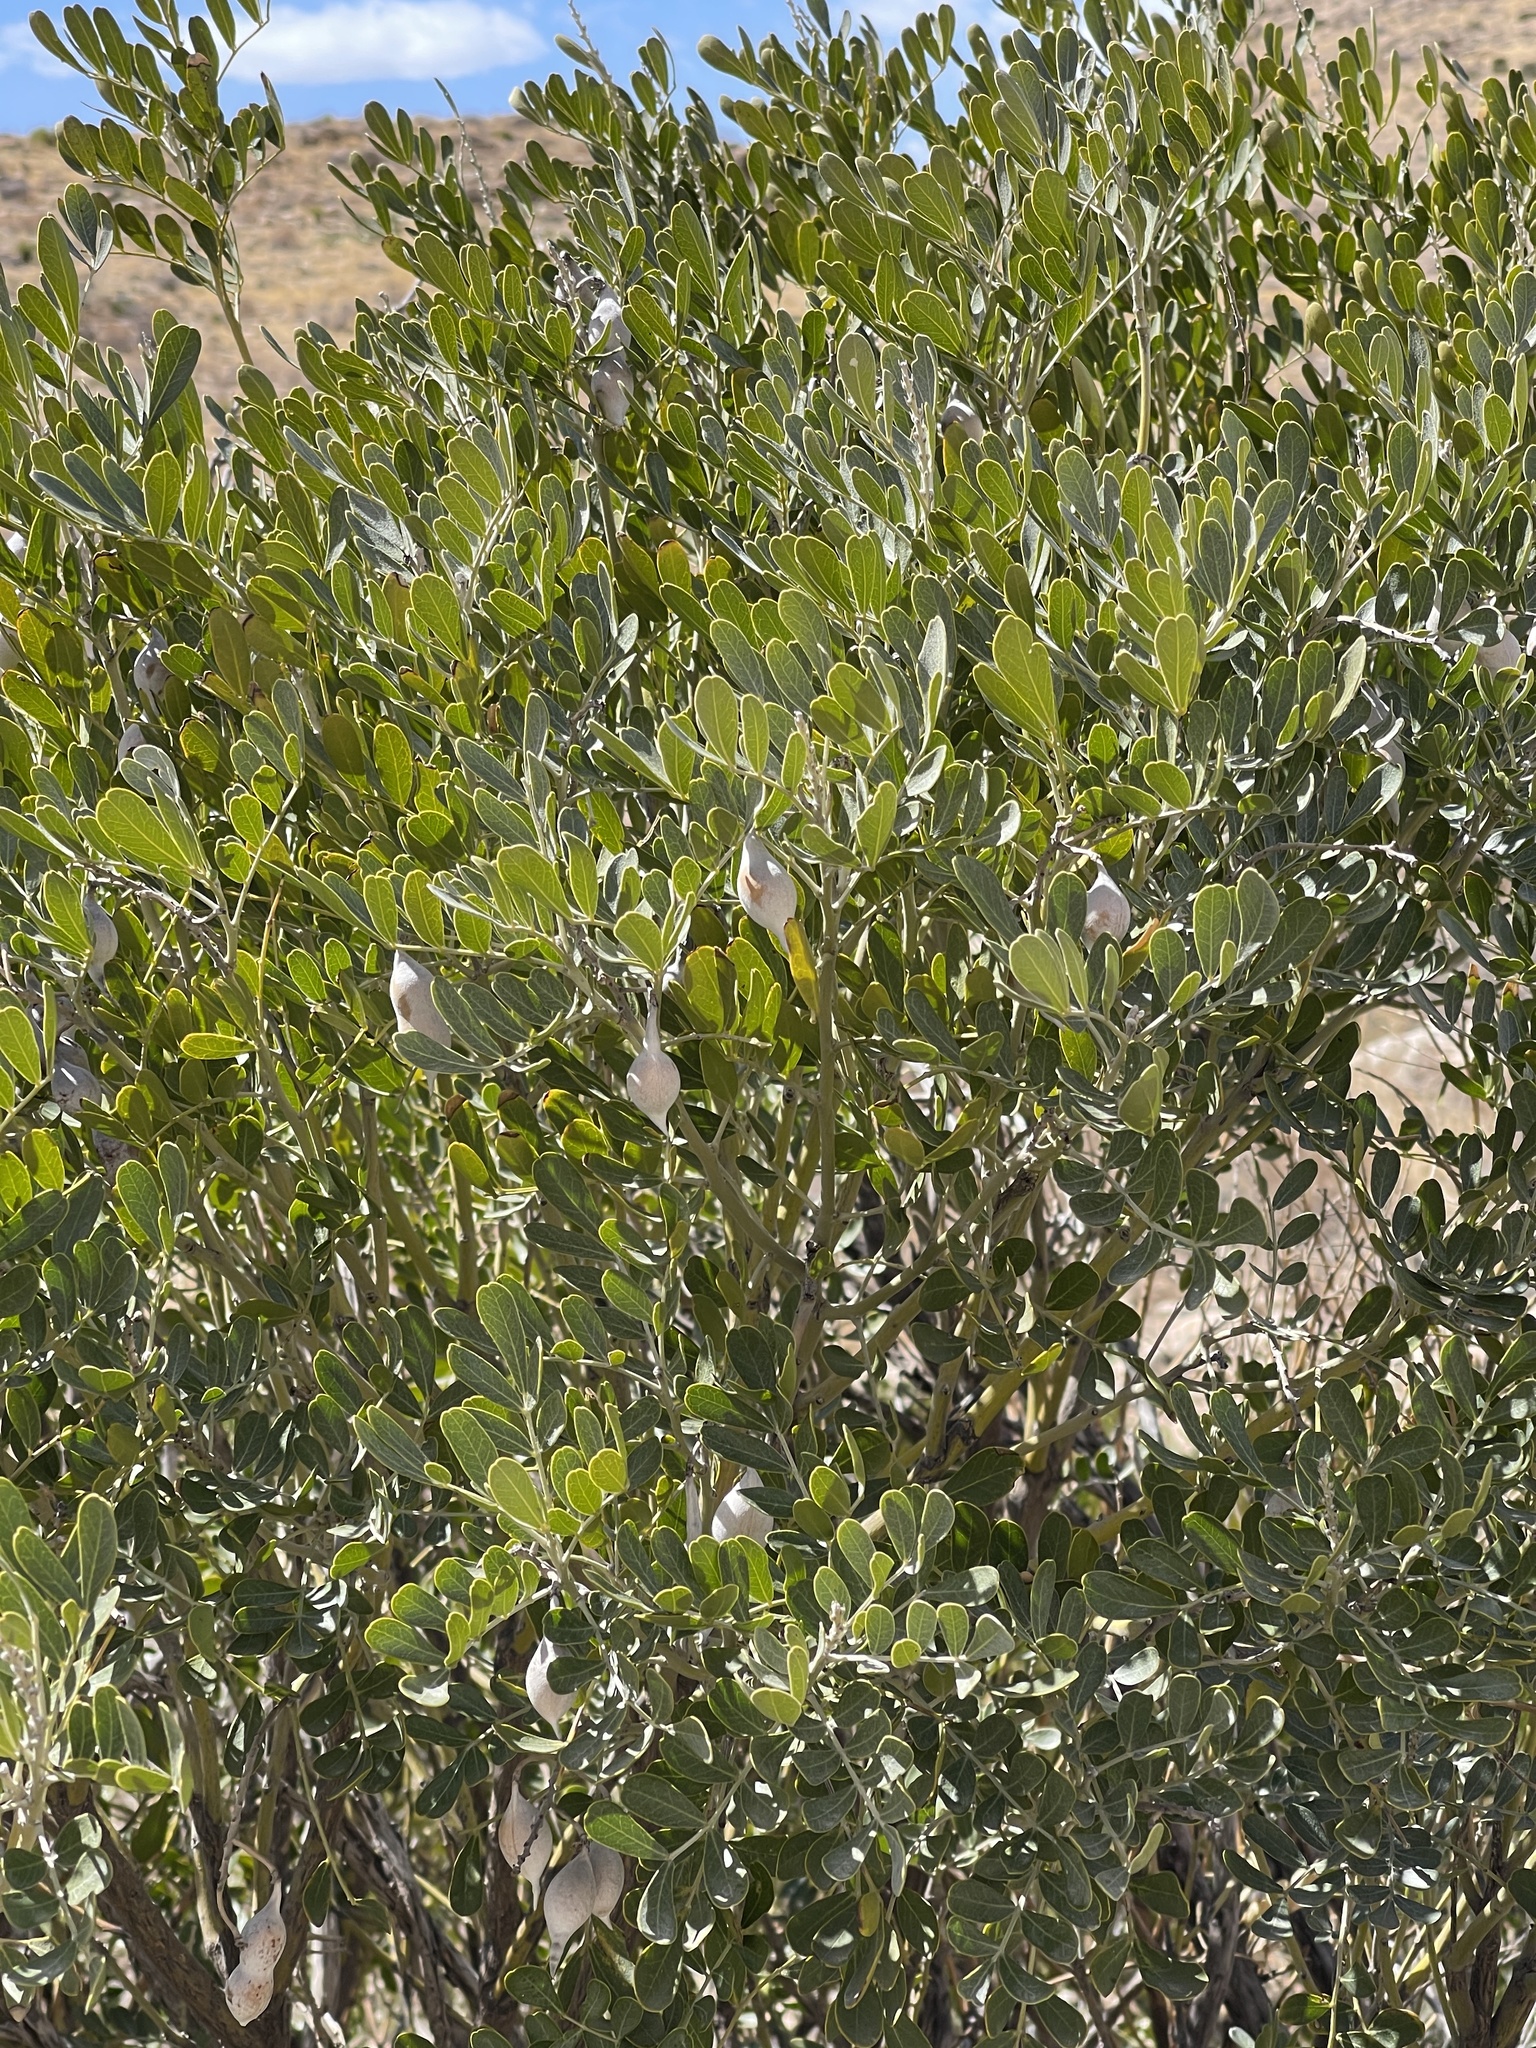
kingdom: Plantae
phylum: Tracheophyta
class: Magnoliopsida
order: Fabales
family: Fabaceae
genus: Dermatophyllum
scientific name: Dermatophyllum secundiflorum
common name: Texas-mountain-laurel
